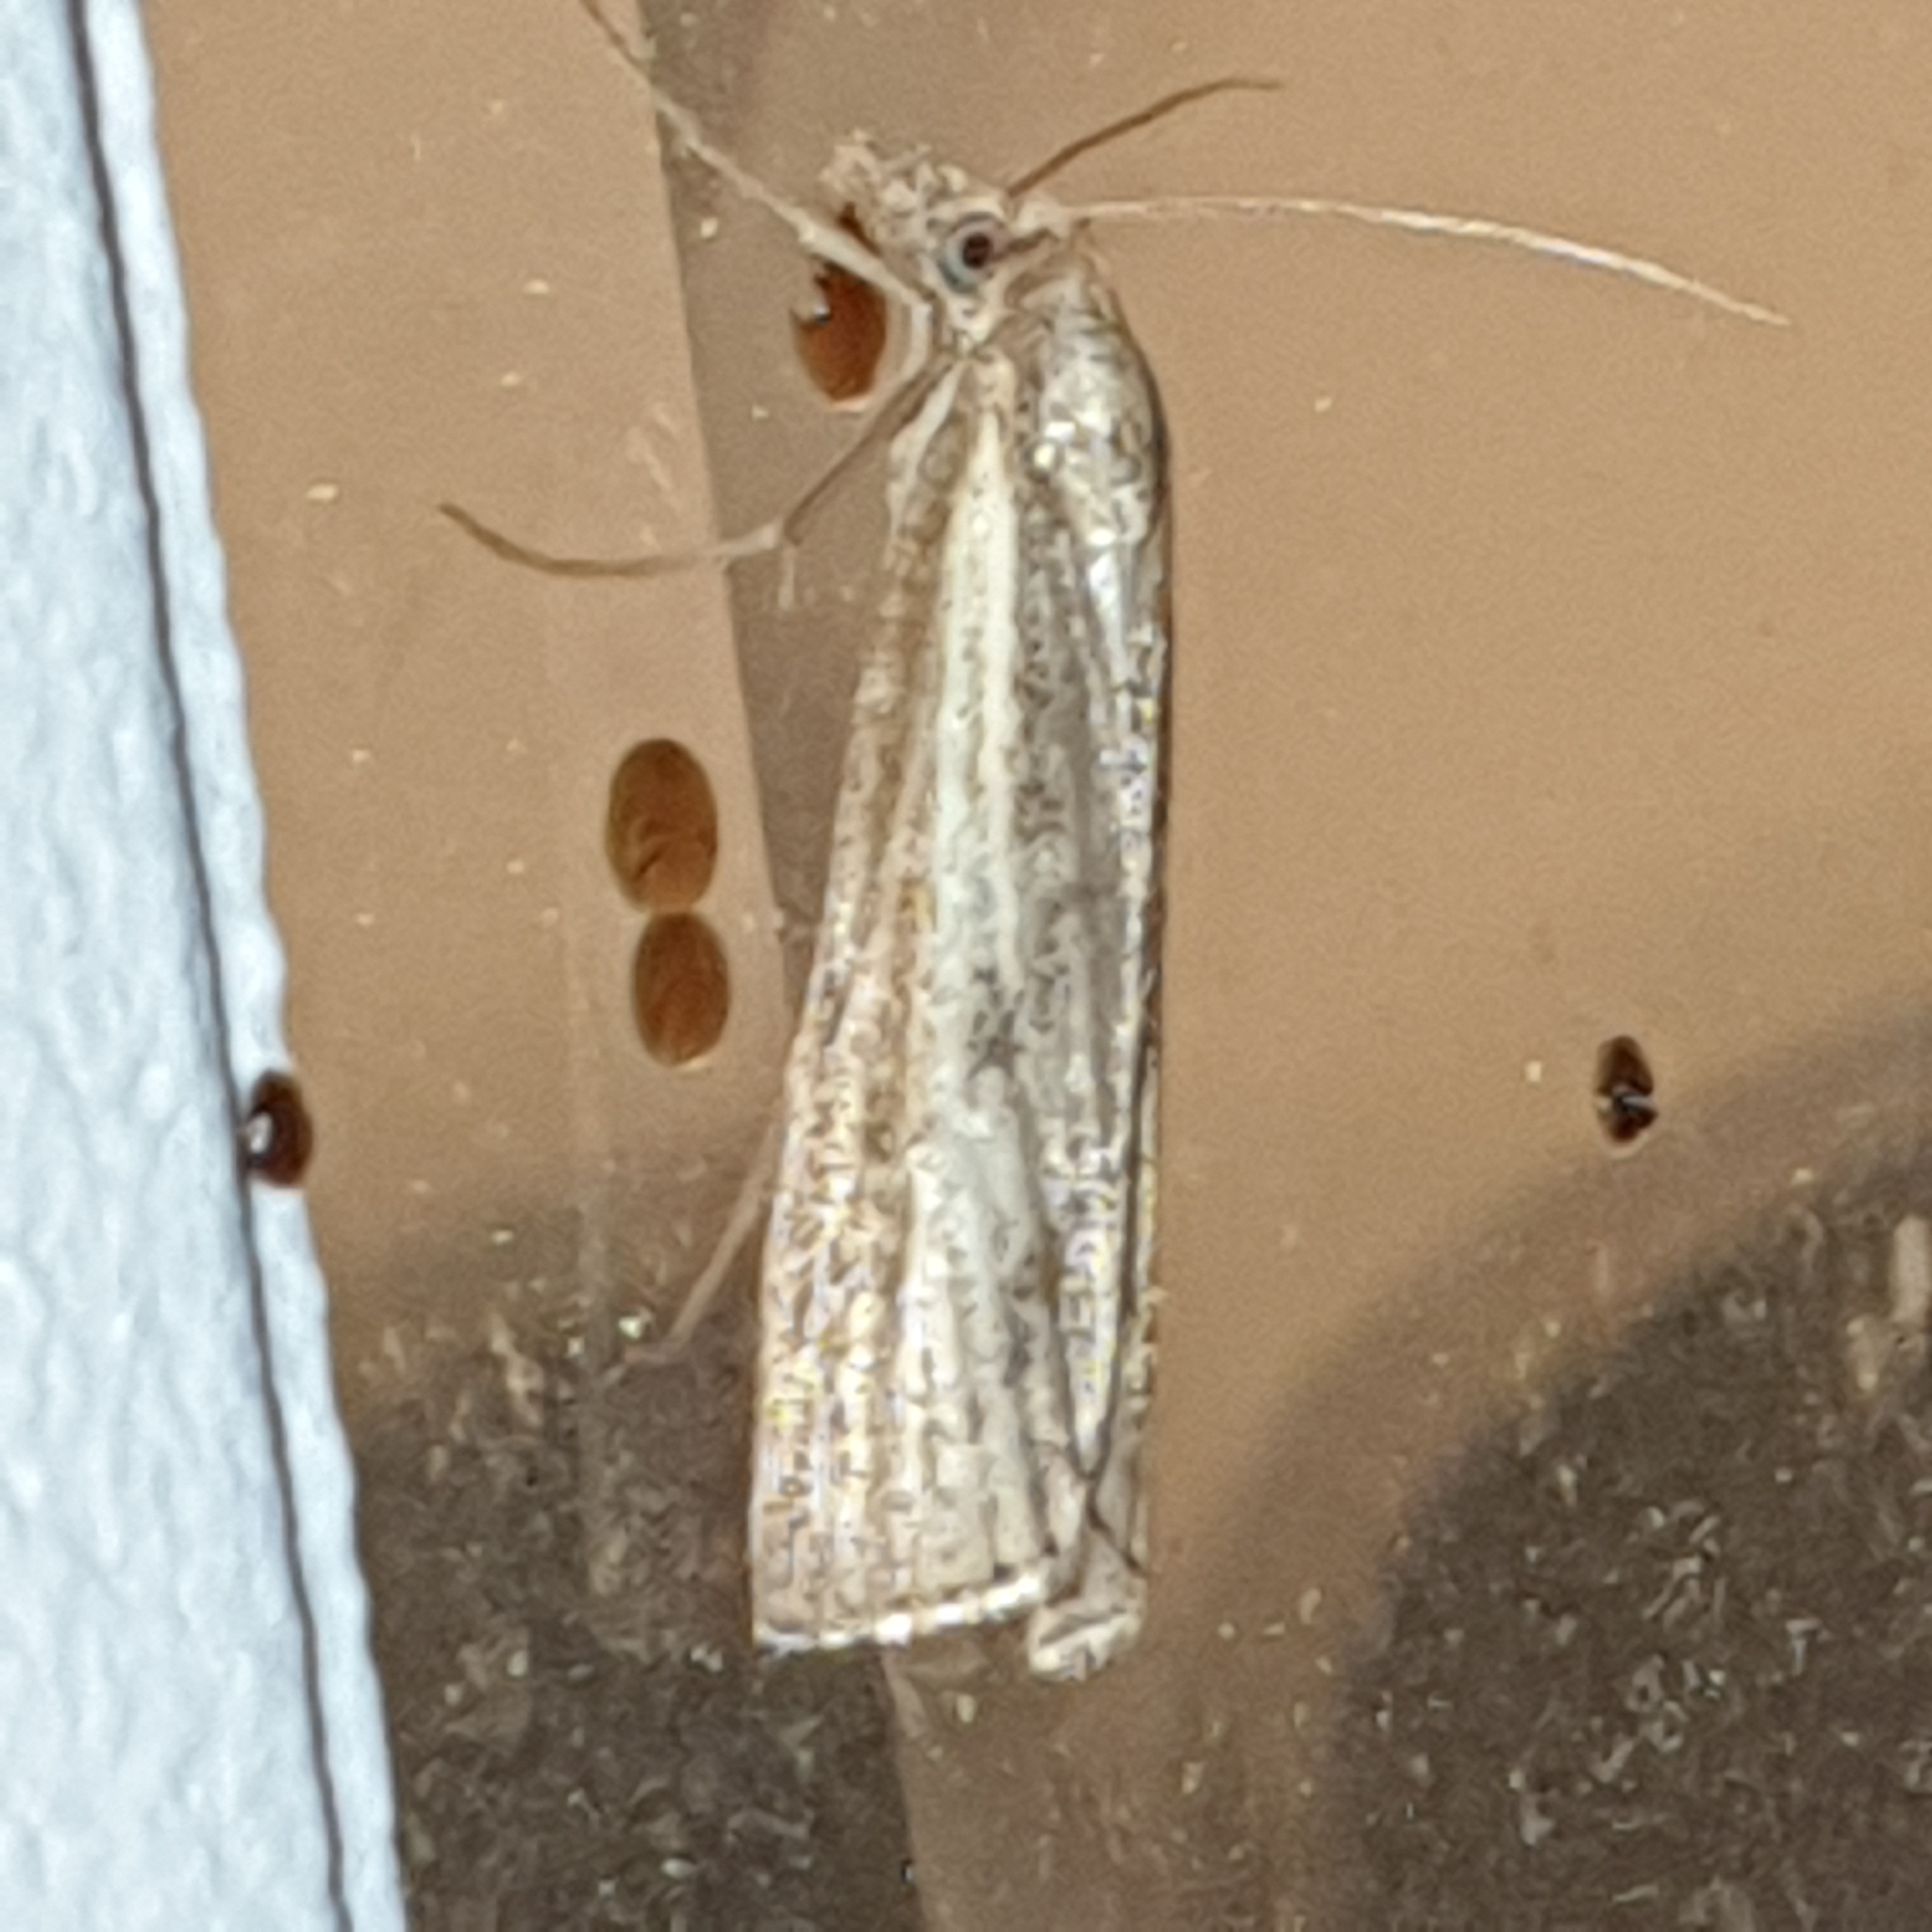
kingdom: Animalia
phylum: Arthropoda
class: Insecta
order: Lepidoptera
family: Crambidae
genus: Agriphila
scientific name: Agriphila inquinatella
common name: Barred grass-veneer
